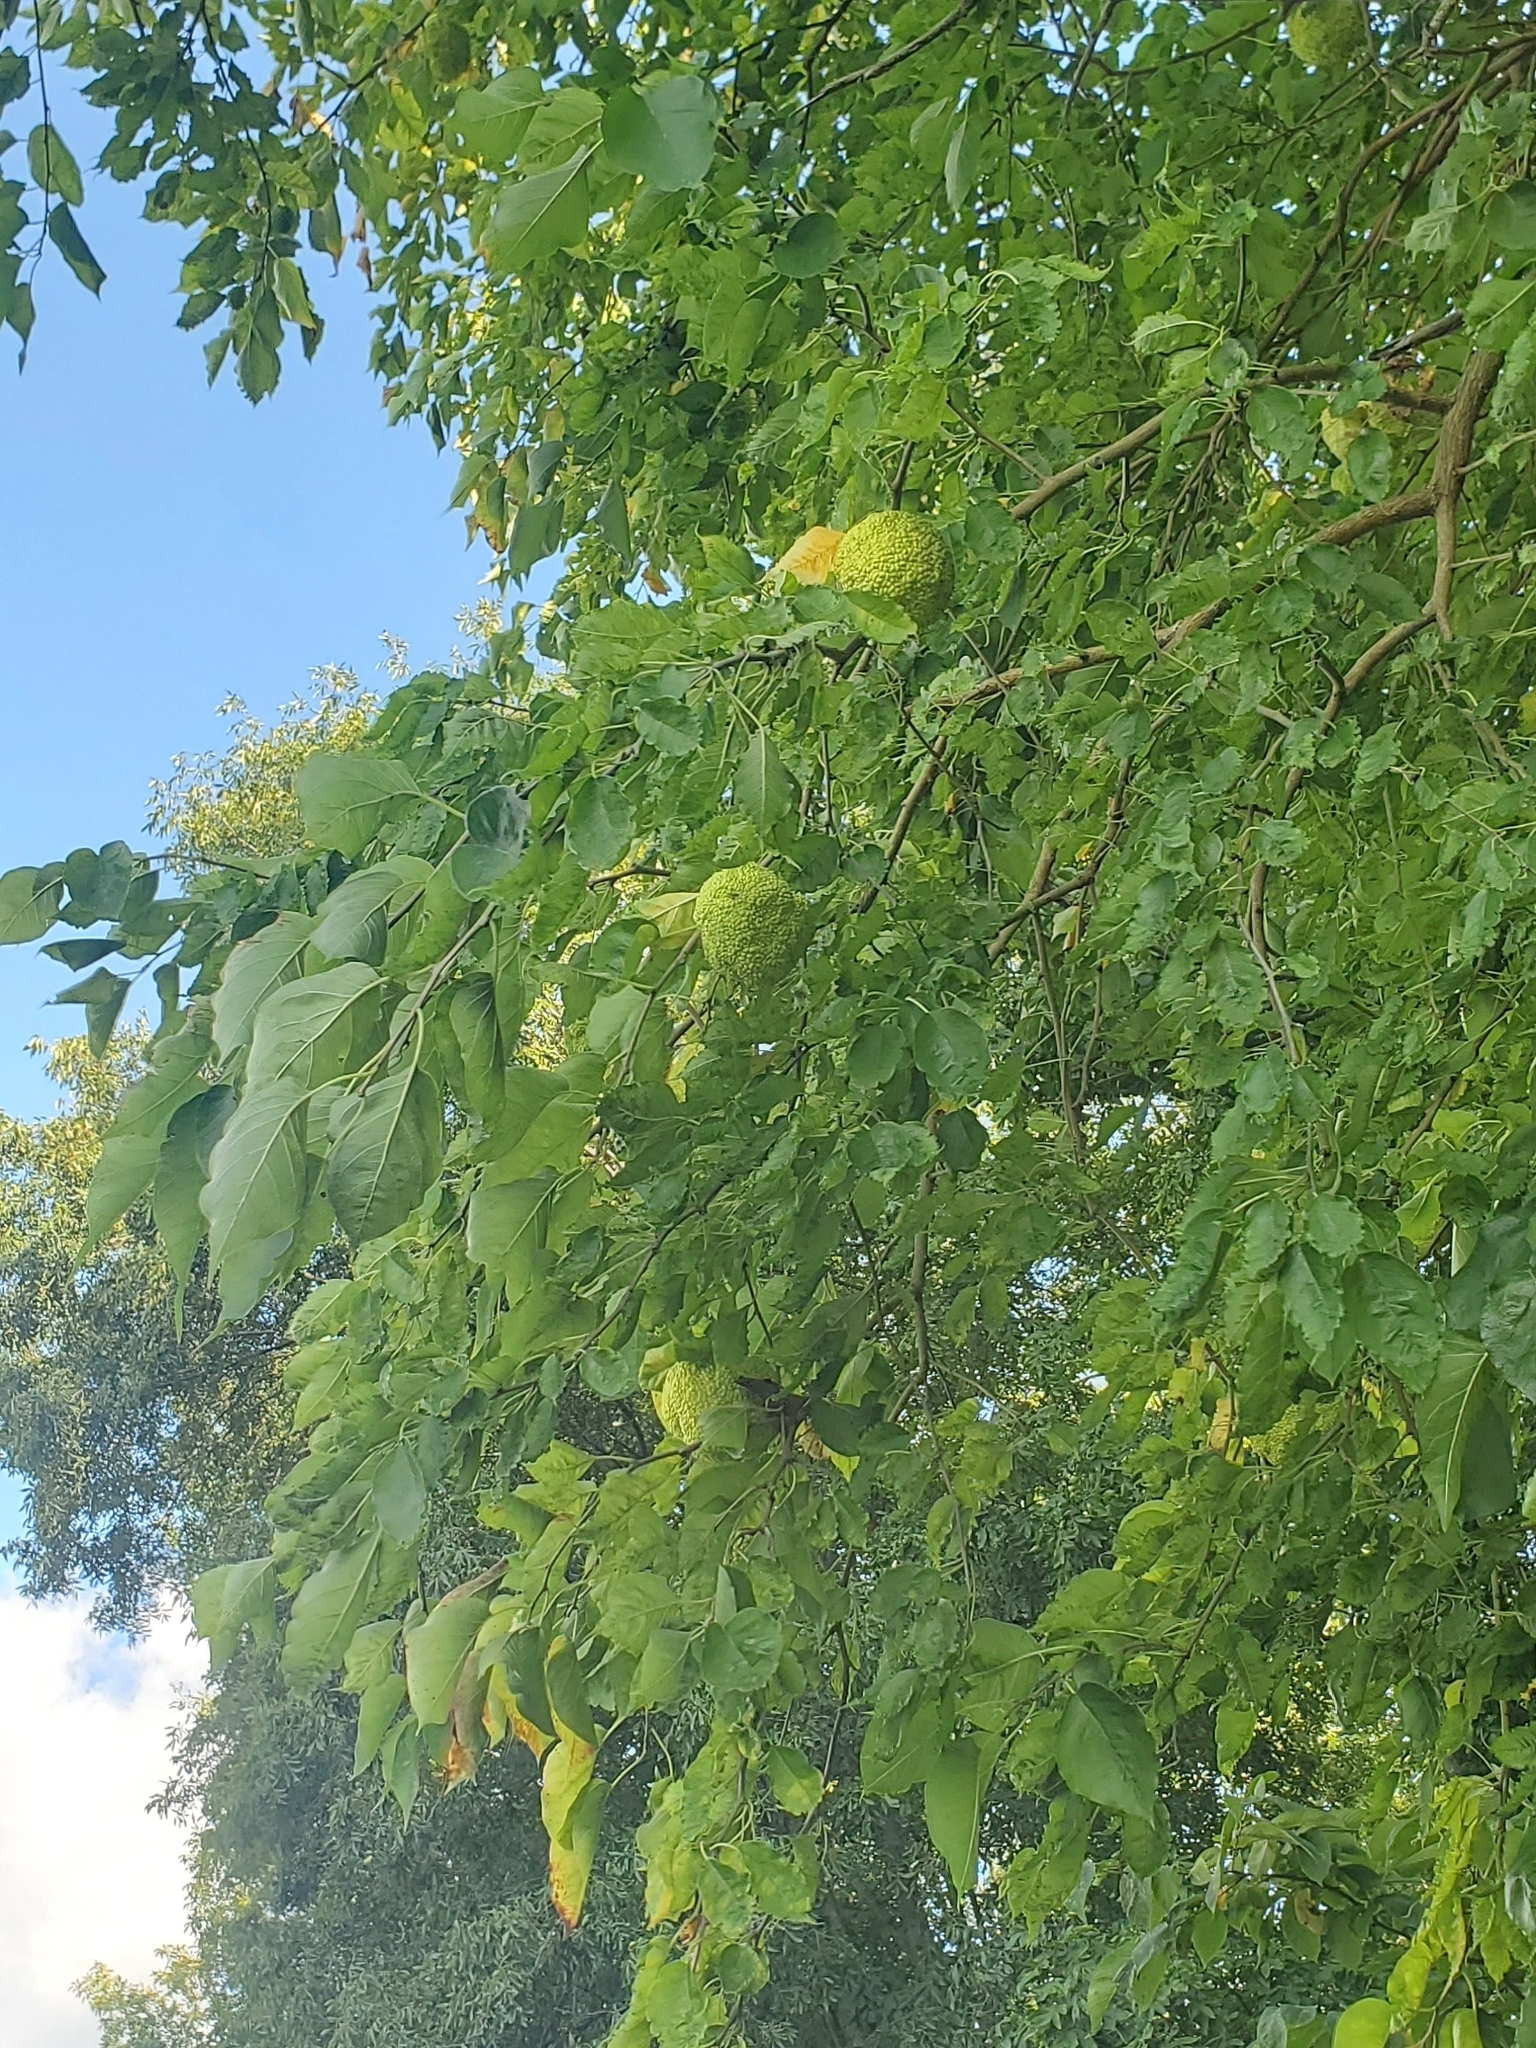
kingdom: Plantae
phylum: Tracheophyta
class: Magnoliopsida
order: Rosales
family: Moraceae
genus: Maclura
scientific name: Maclura pomifera
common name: Osage-orange
